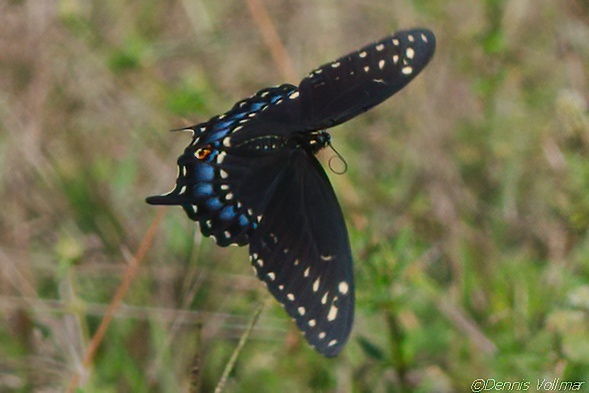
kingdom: Animalia
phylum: Arthropoda
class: Insecta
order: Lepidoptera
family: Papilionidae
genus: Papilio
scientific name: Papilio polyxenes
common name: Black swallowtail
